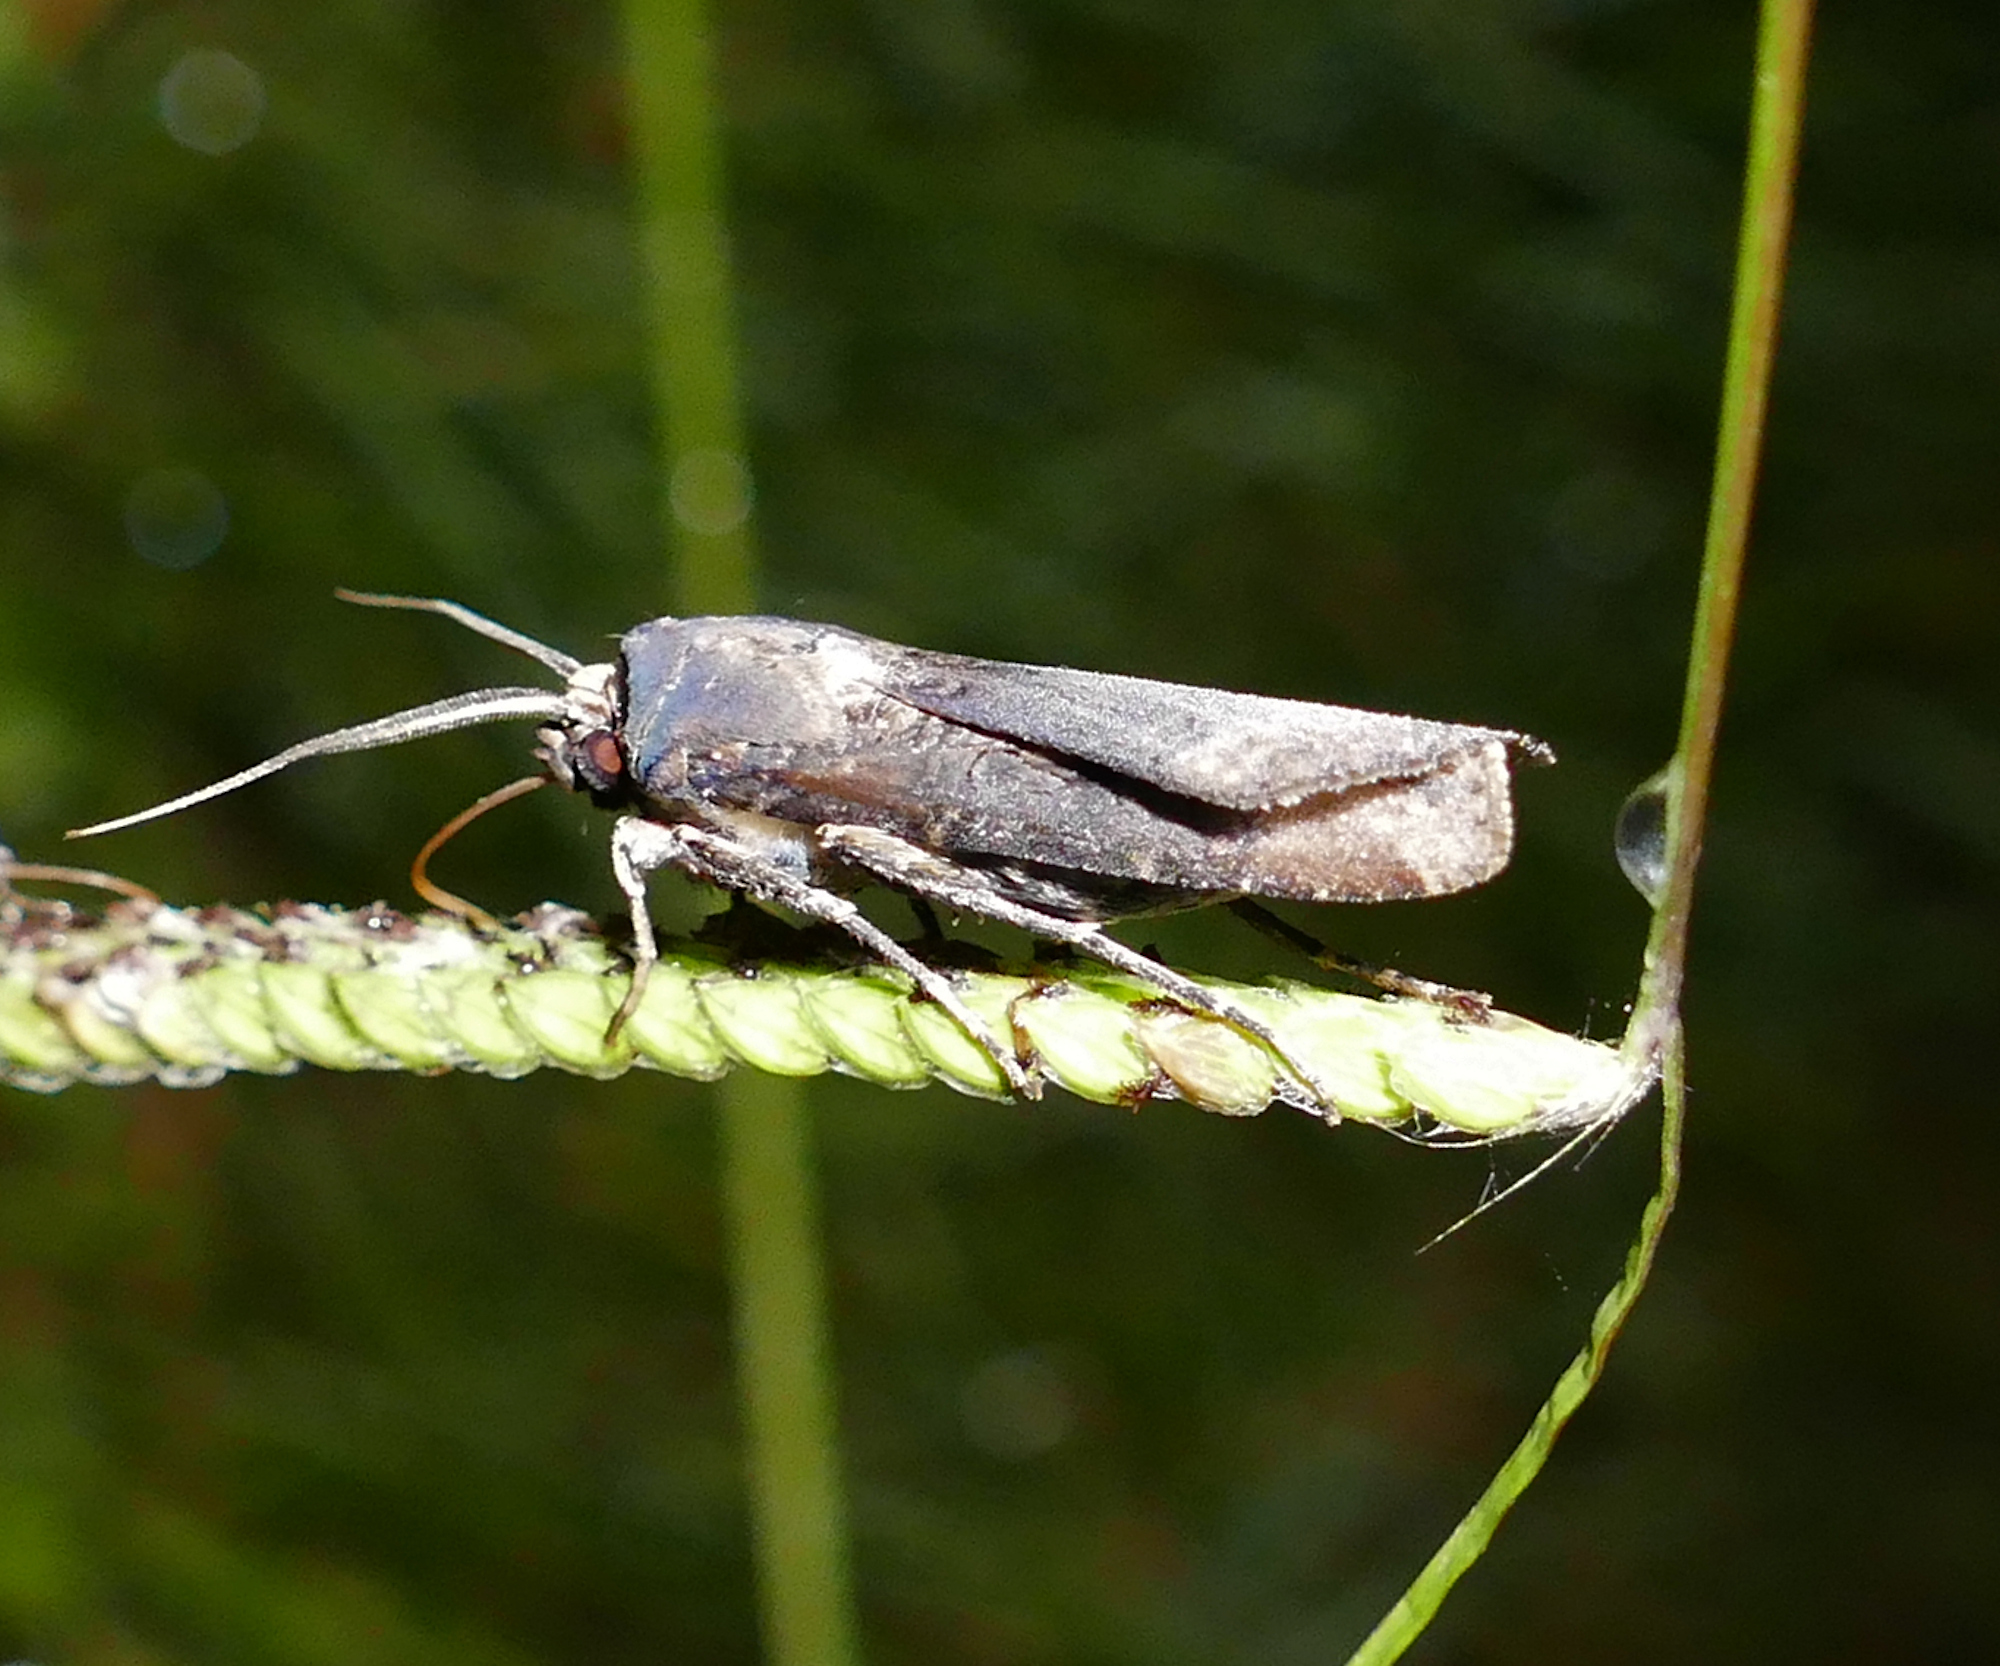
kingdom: Animalia
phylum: Arthropoda
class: Insecta
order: Lepidoptera
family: Noctuidae
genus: Agrotis
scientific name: Agrotis ipsilon
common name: Dark sword-grass
